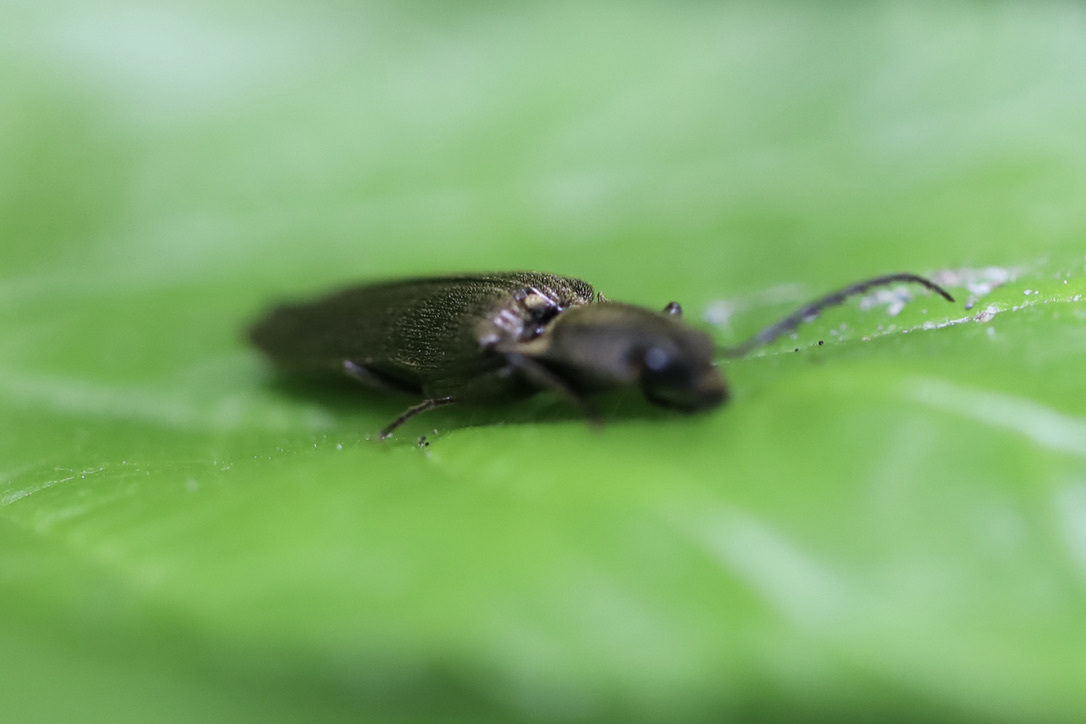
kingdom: Animalia
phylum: Arthropoda
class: Insecta
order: Coleoptera
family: Elateridae
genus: Proludius
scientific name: Proludius
